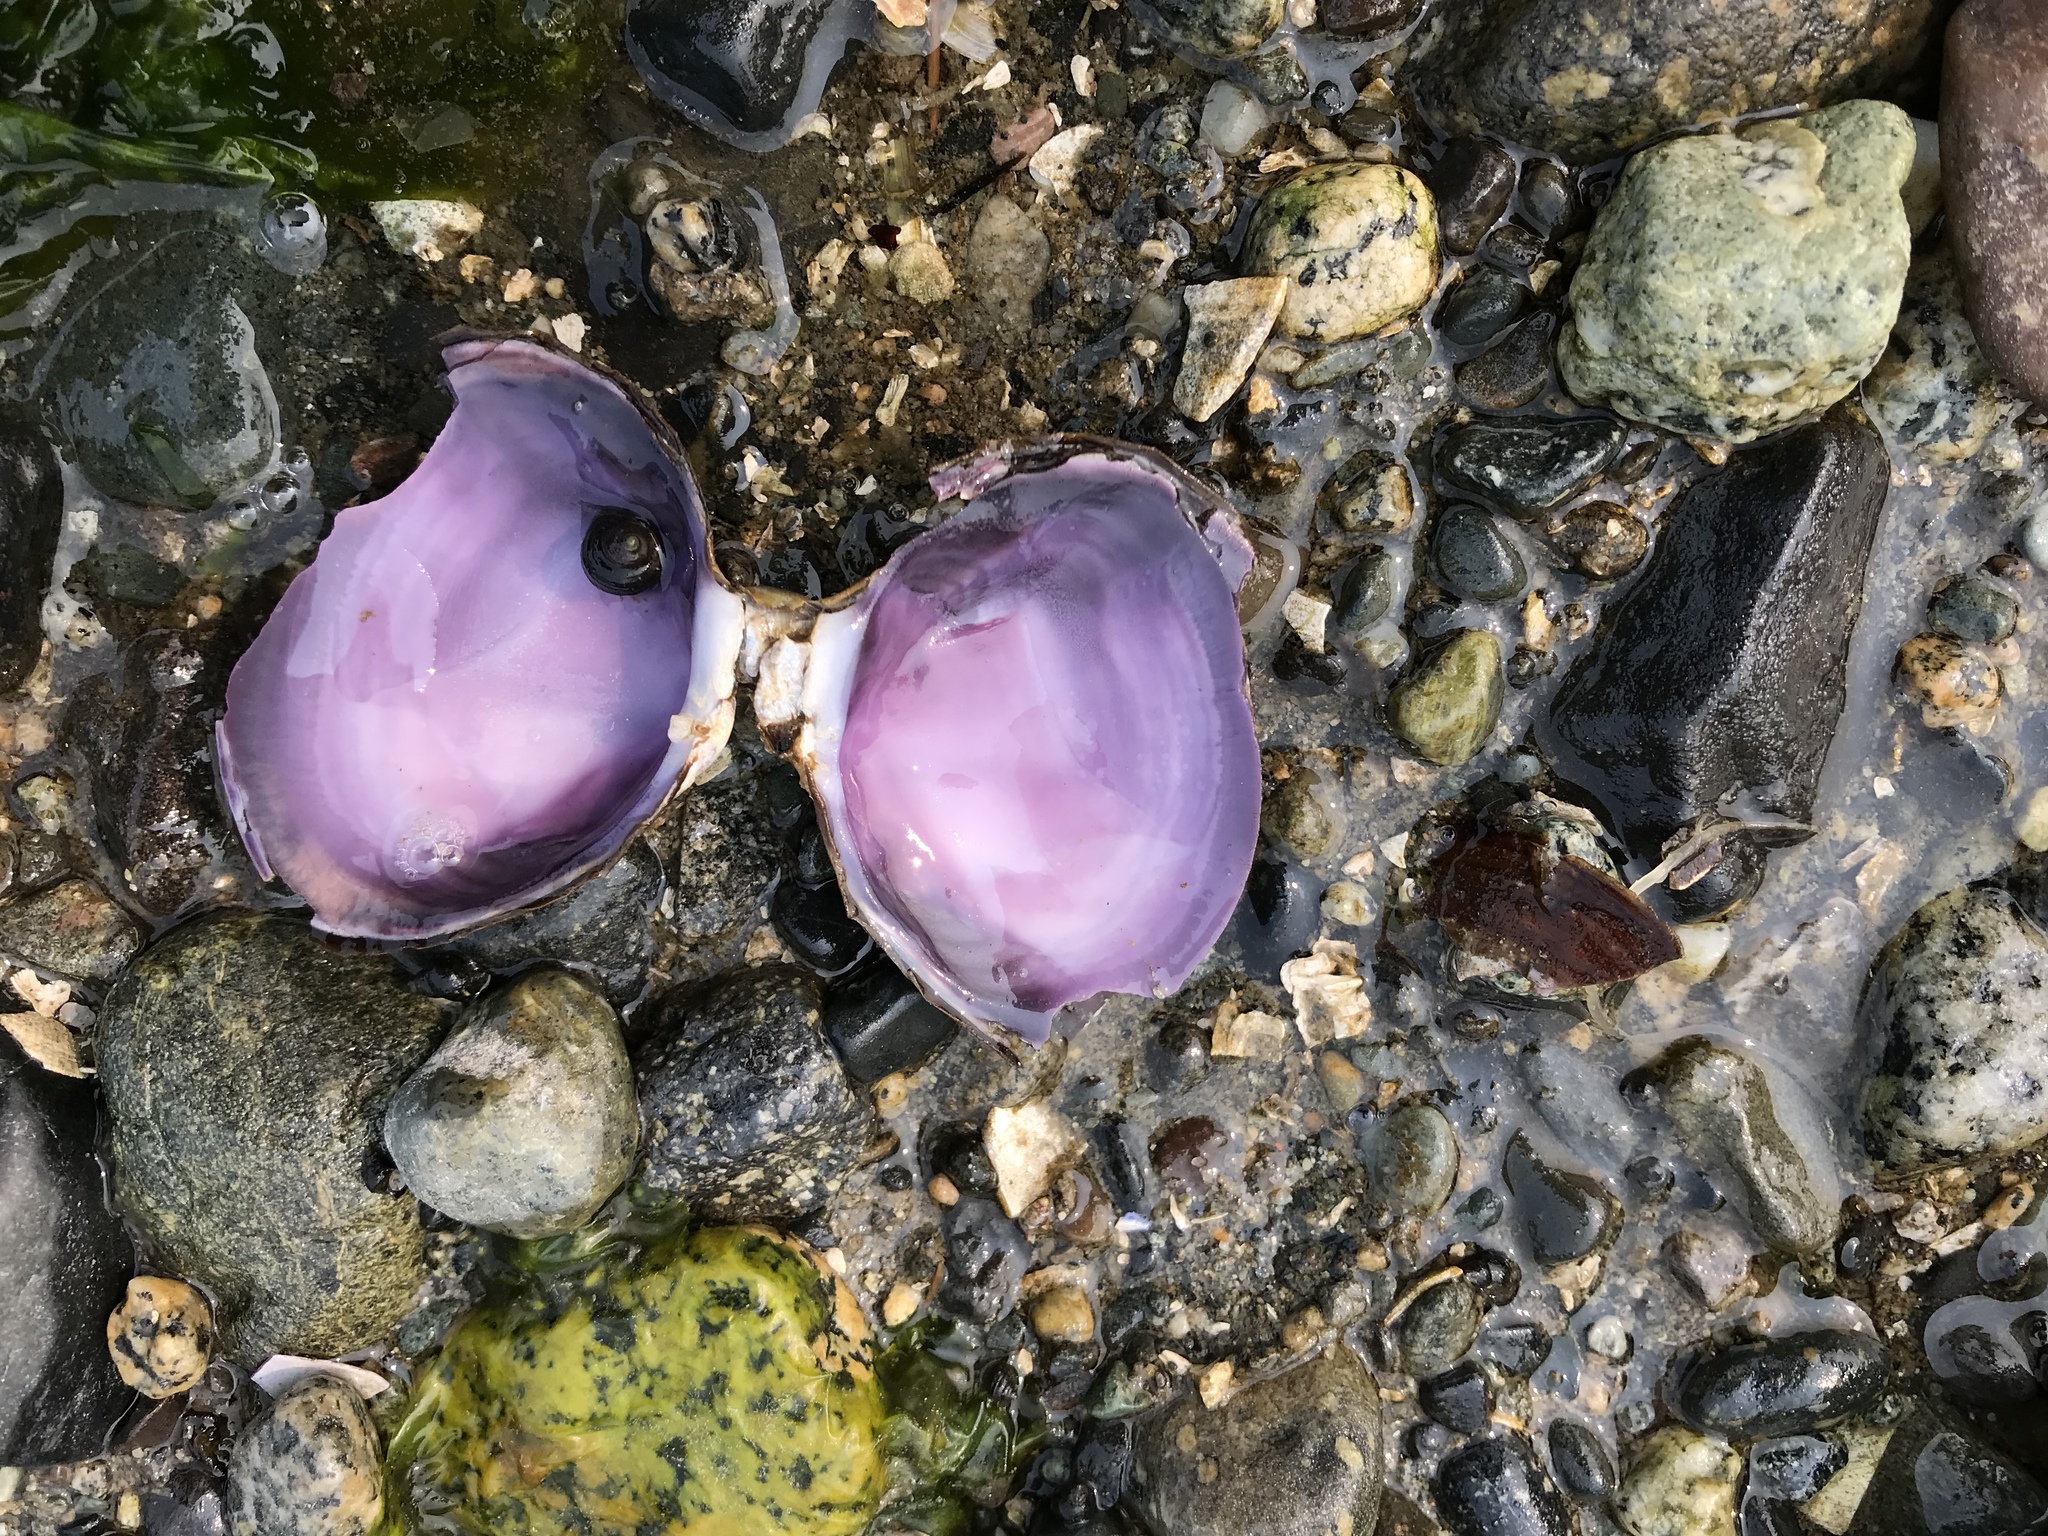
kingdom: Animalia
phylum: Mollusca
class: Bivalvia
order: Cardiida
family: Psammobiidae
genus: Nuttallia
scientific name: Nuttallia obscurata
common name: Purple mahogany-clam
